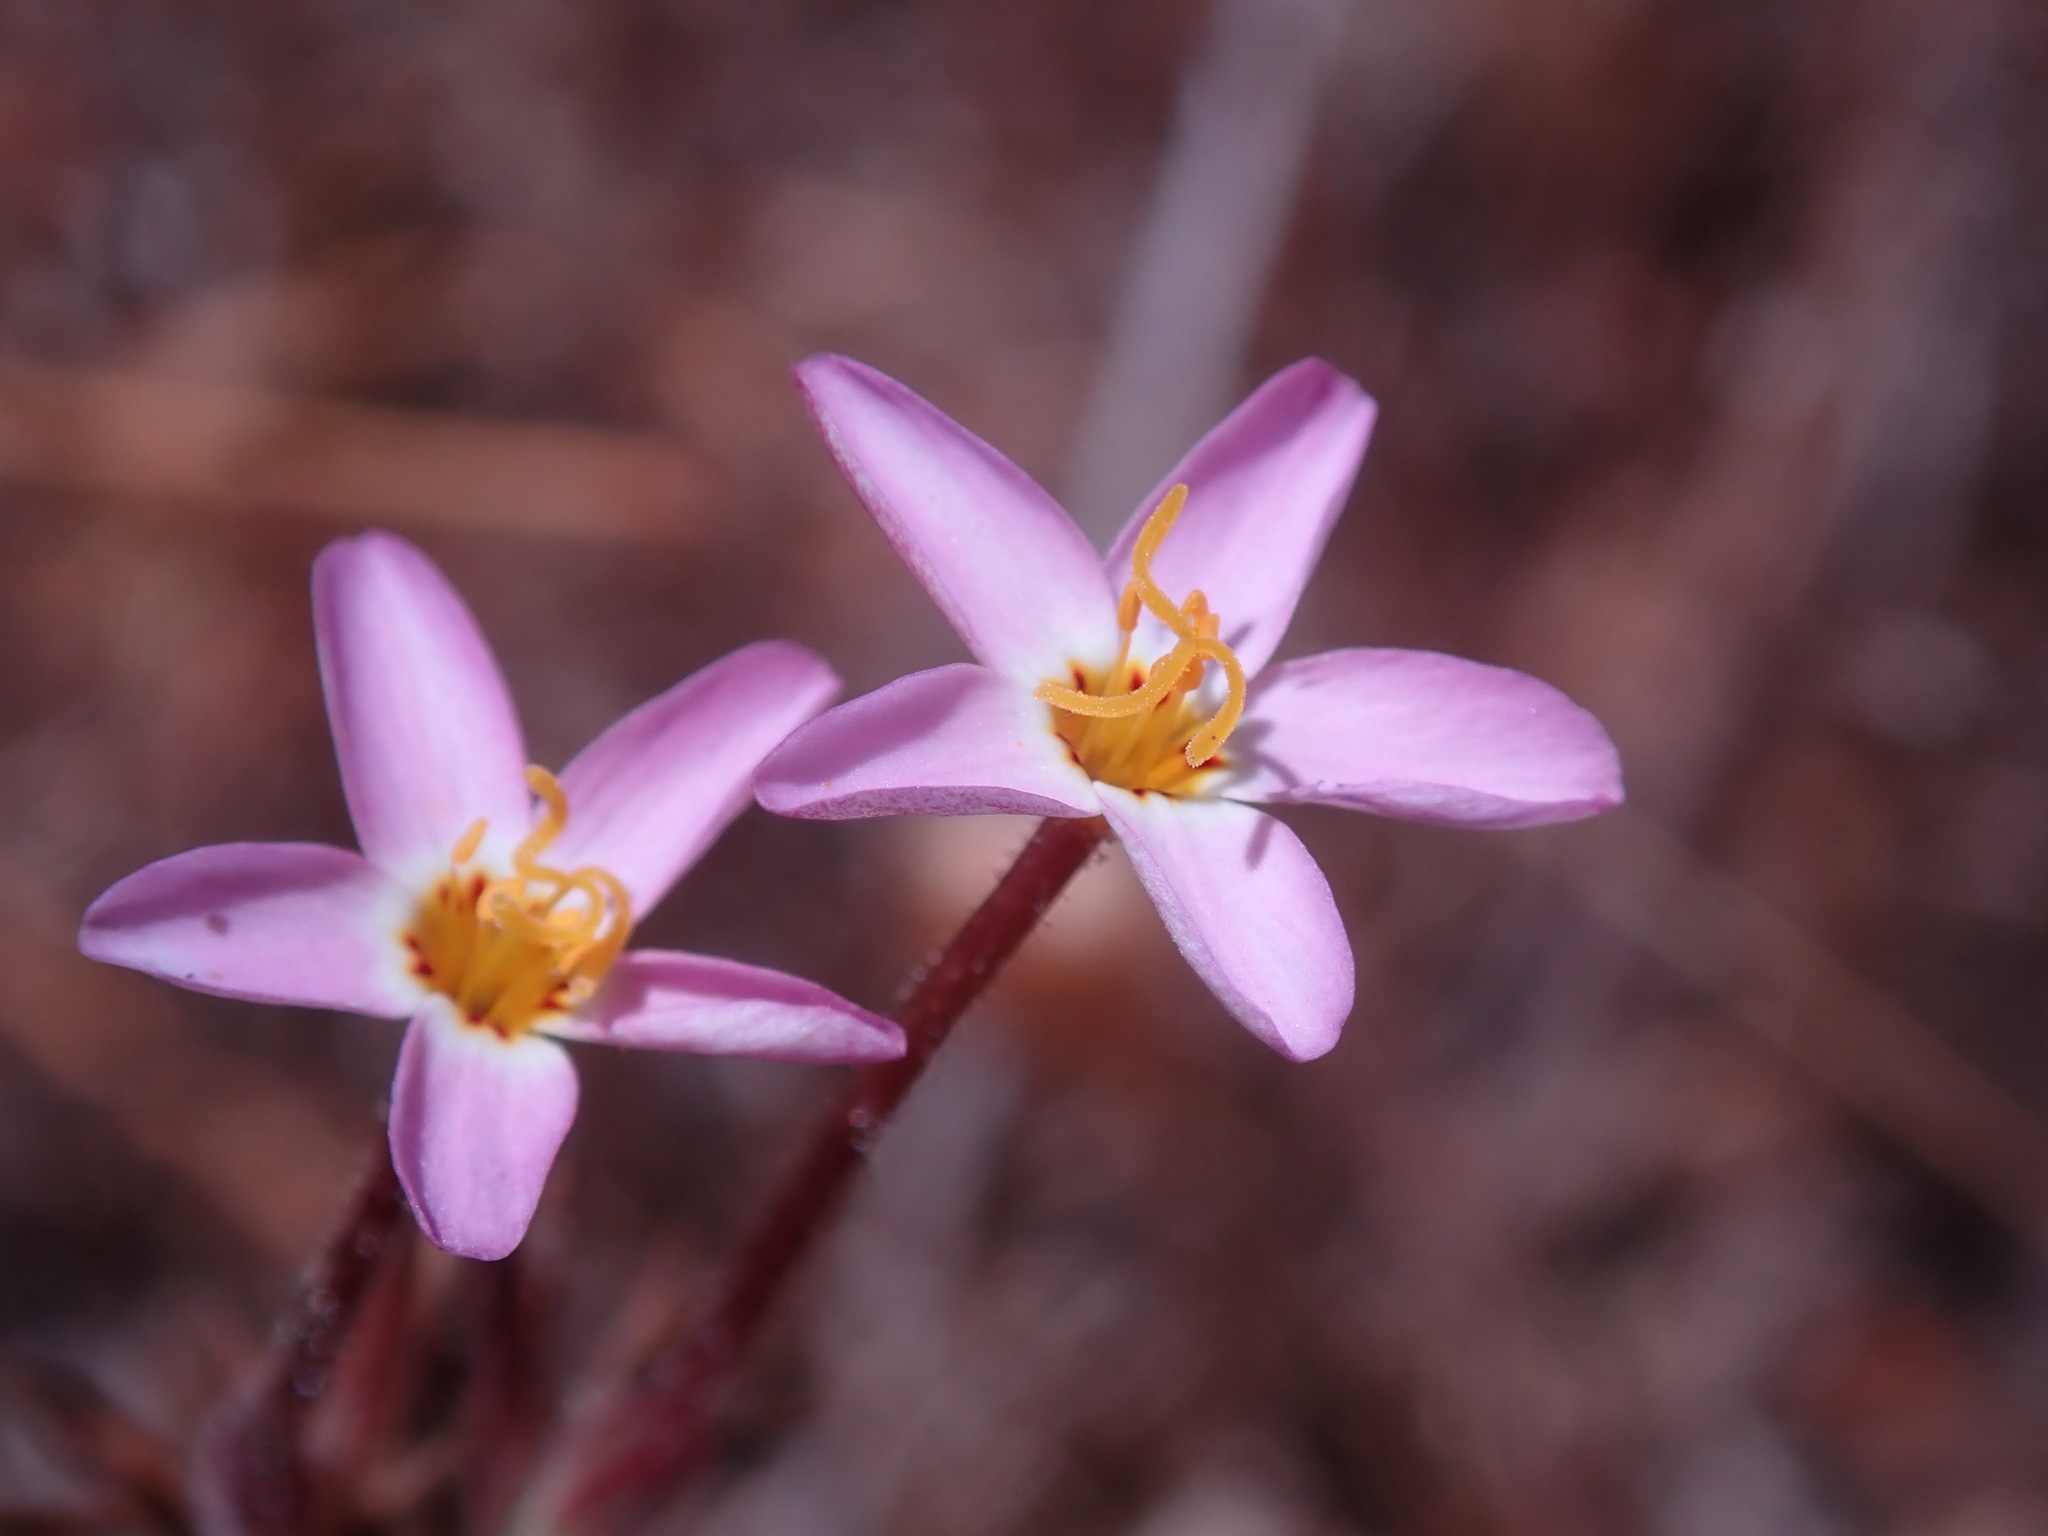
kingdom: Plantae
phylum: Tracheophyta
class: Magnoliopsida
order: Ericales
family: Polemoniaceae
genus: Leptosiphon
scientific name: Leptosiphon parviflorus
